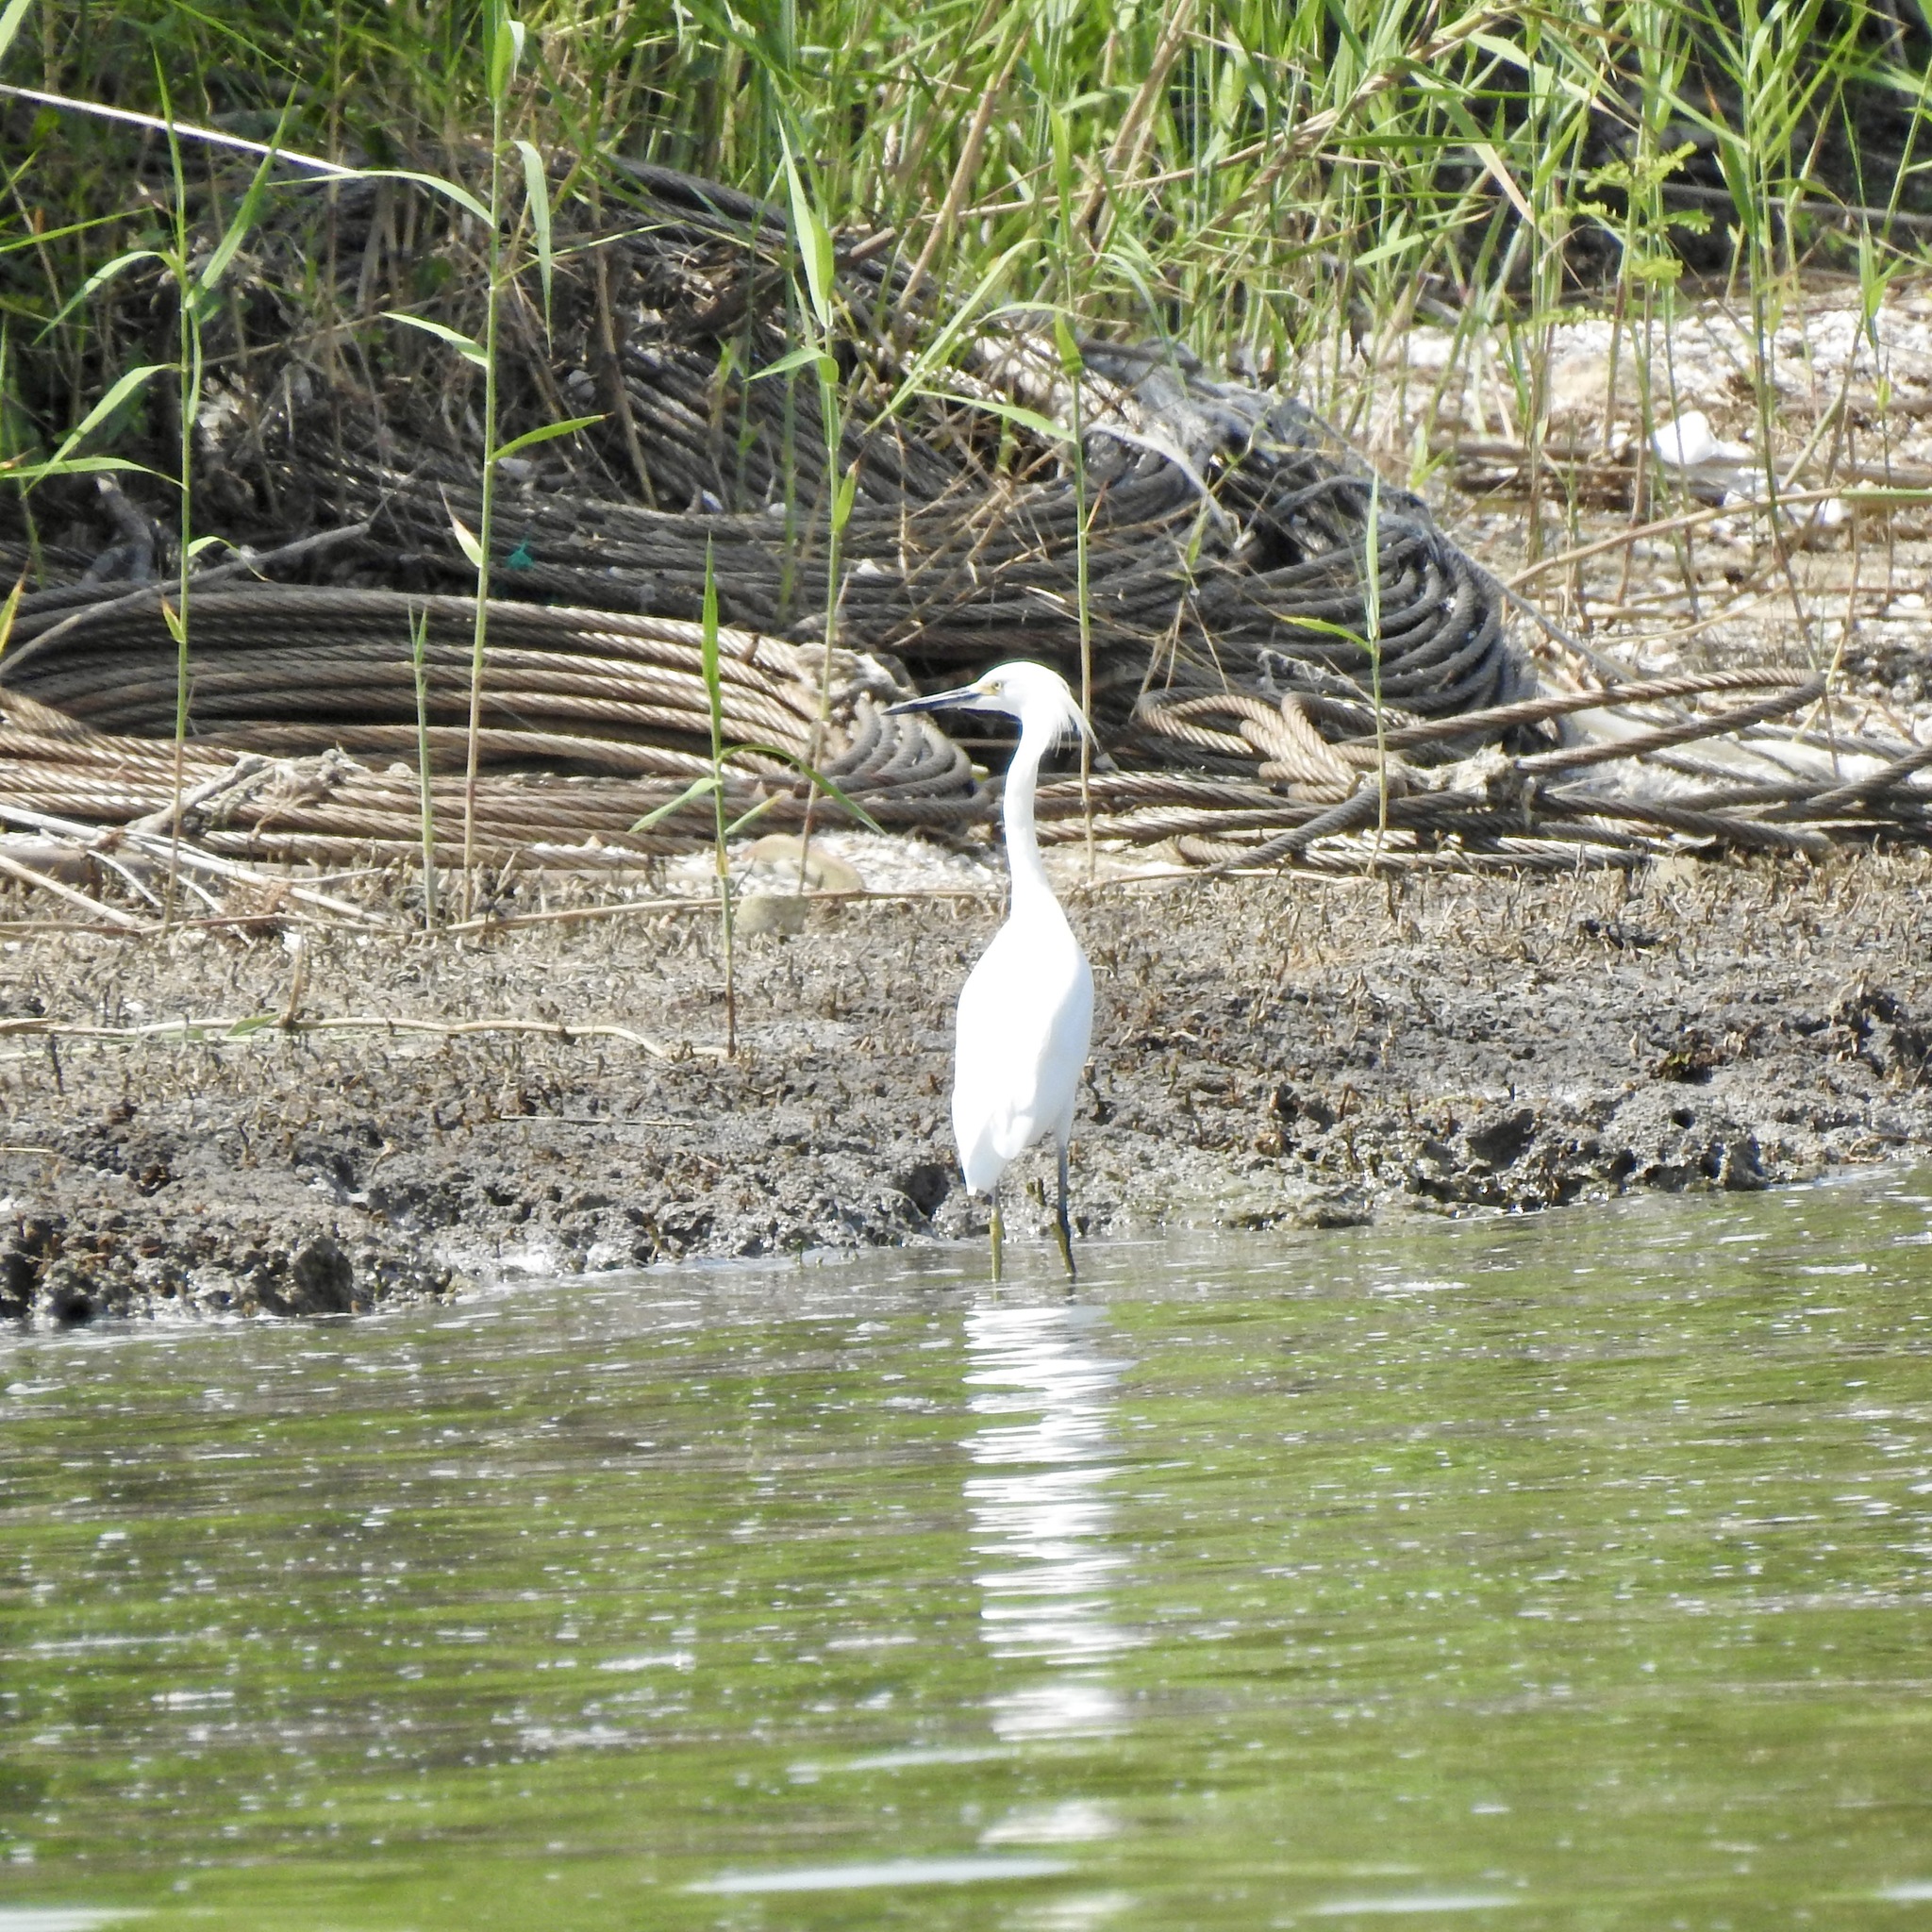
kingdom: Animalia
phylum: Chordata
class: Aves
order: Pelecaniformes
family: Ardeidae
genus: Egretta
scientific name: Egretta thula
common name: Snowy egret
